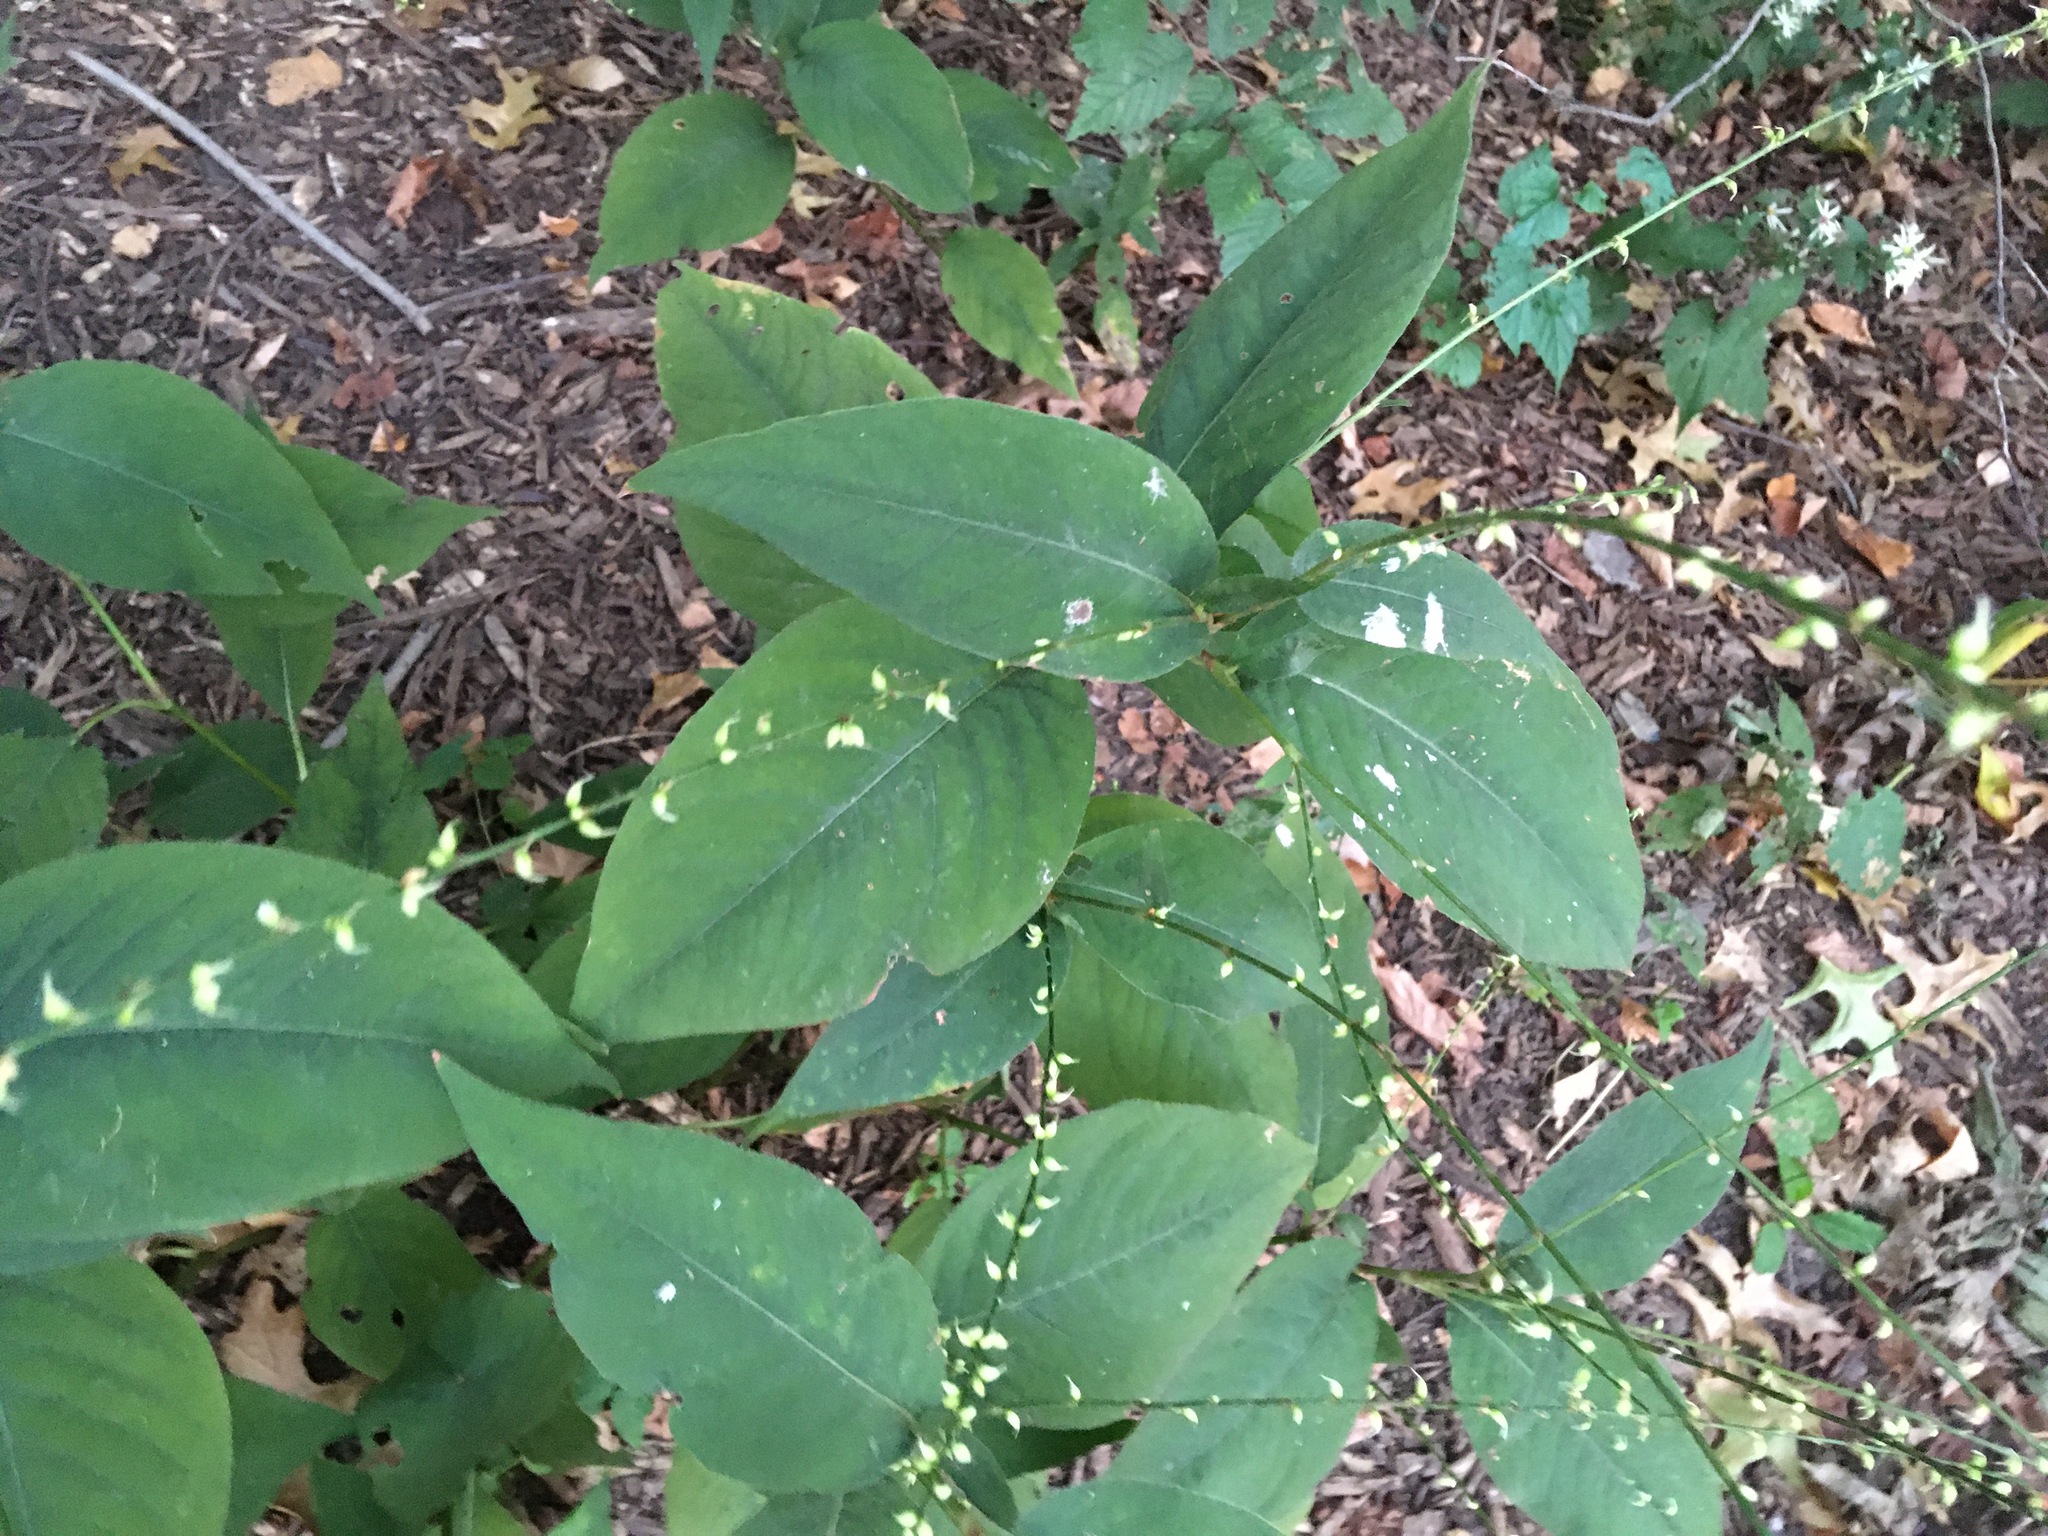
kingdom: Plantae
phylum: Tracheophyta
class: Magnoliopsida
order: Caryophyllales
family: Polygonaceae
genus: Persicaria
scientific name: Persicaria virginiana
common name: Jumpseed
